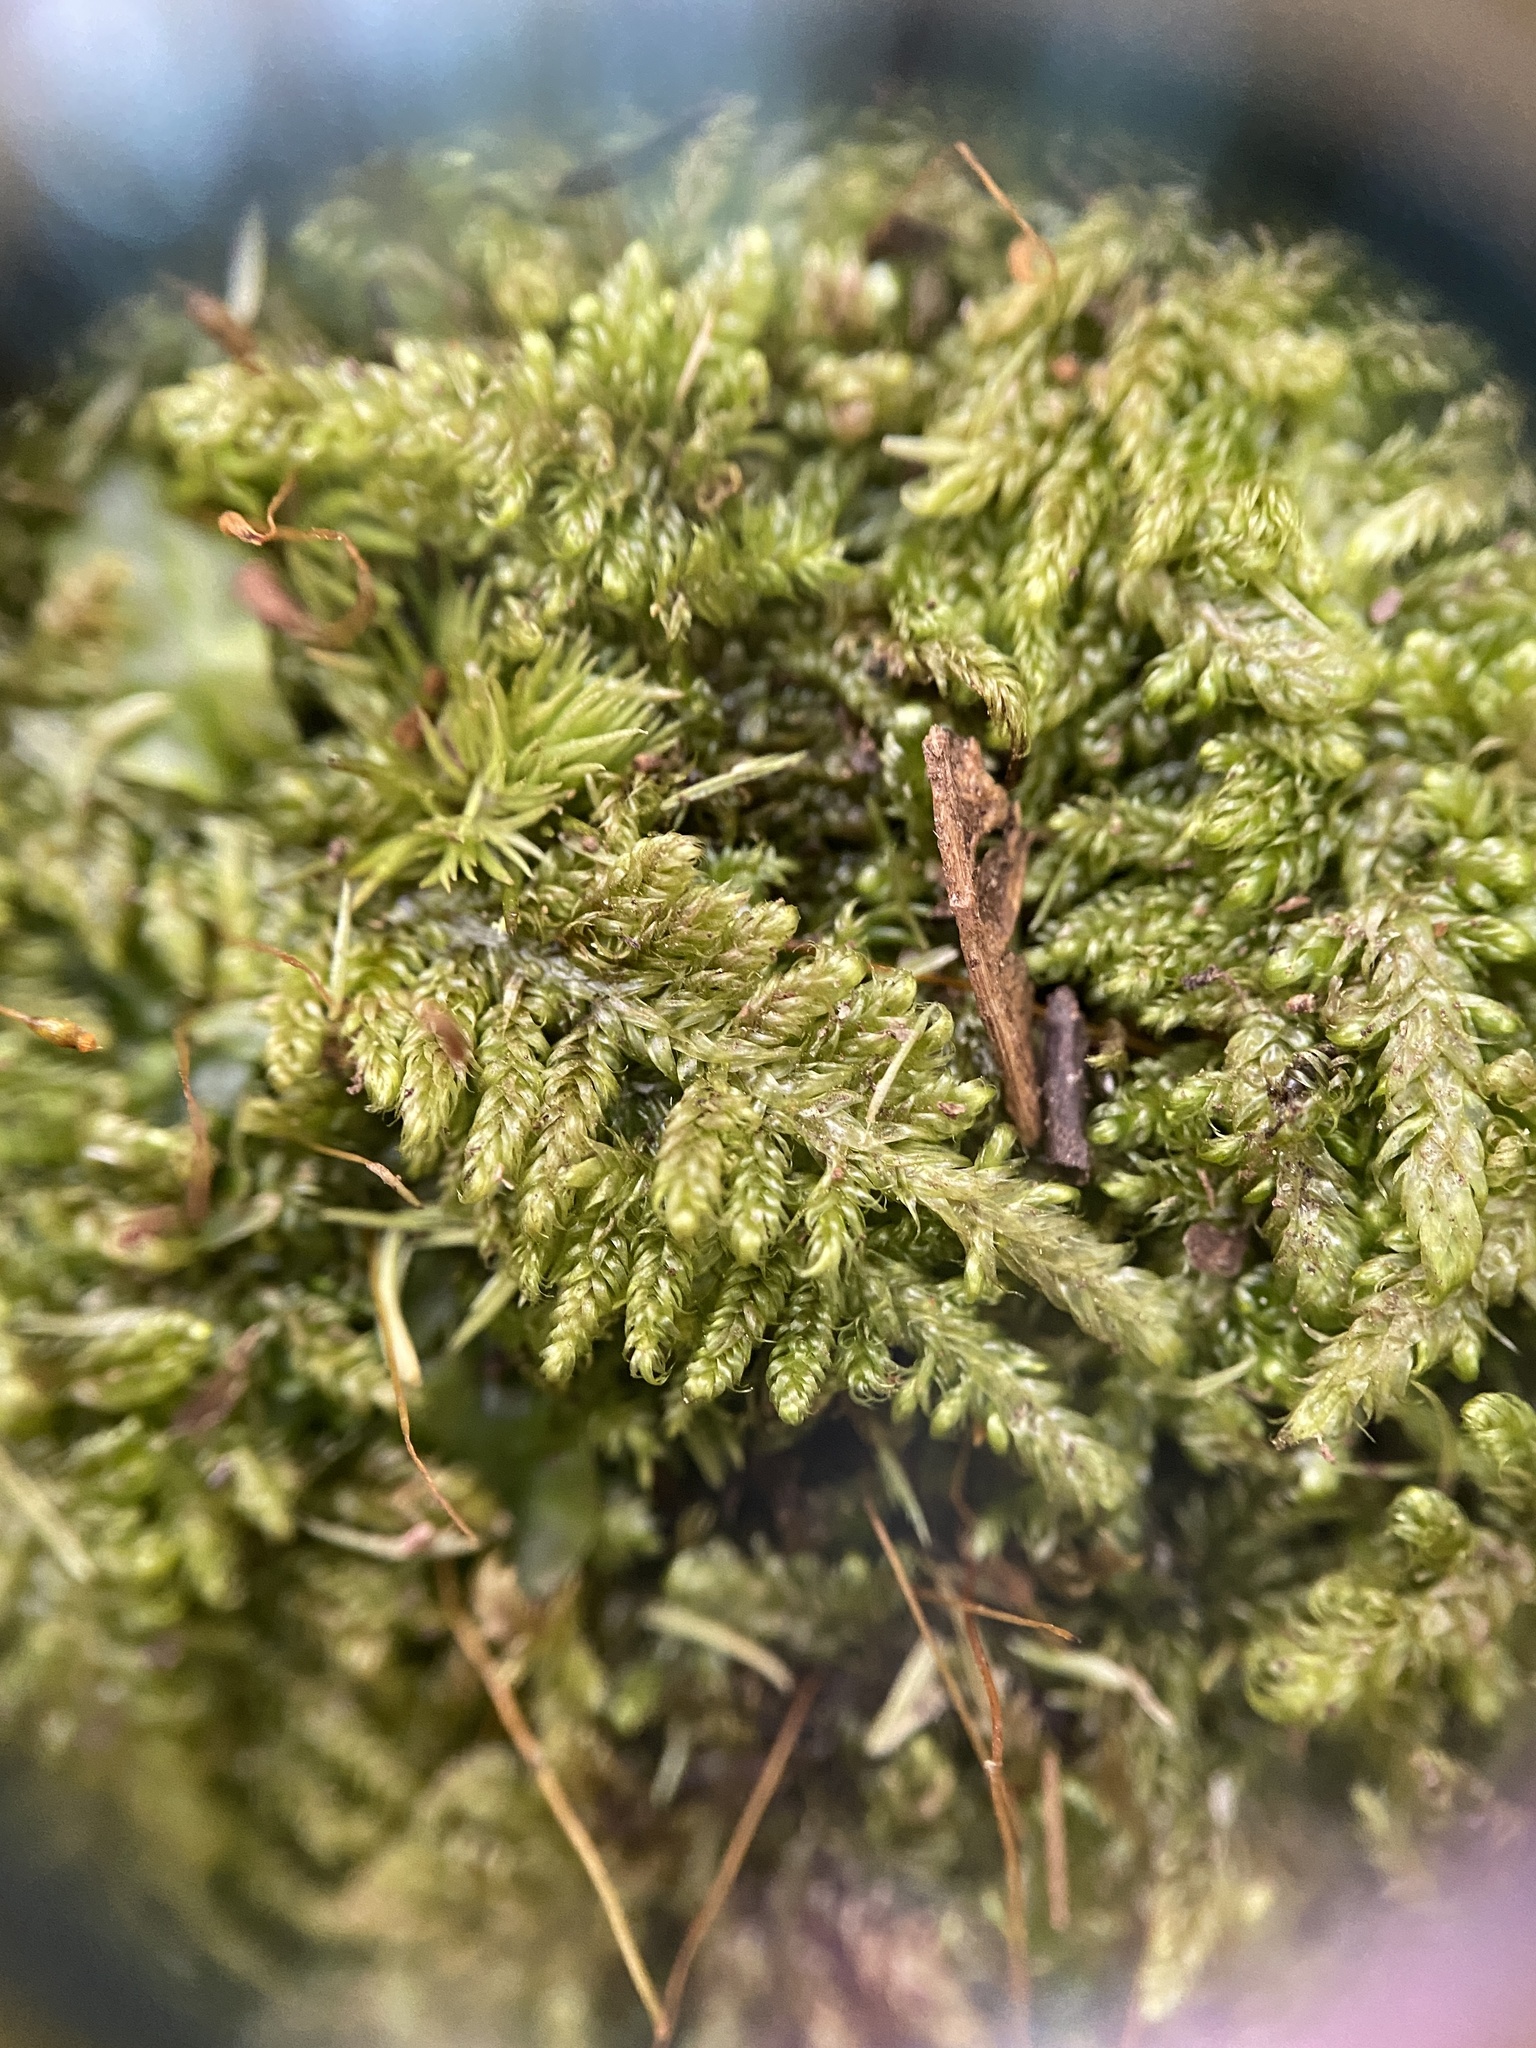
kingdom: Plantae
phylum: Bryophyta
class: Bryopsida
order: Hypnales
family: Callicladiaceae
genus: Callicladium
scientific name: Callicladium imponens
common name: Brocade moss
